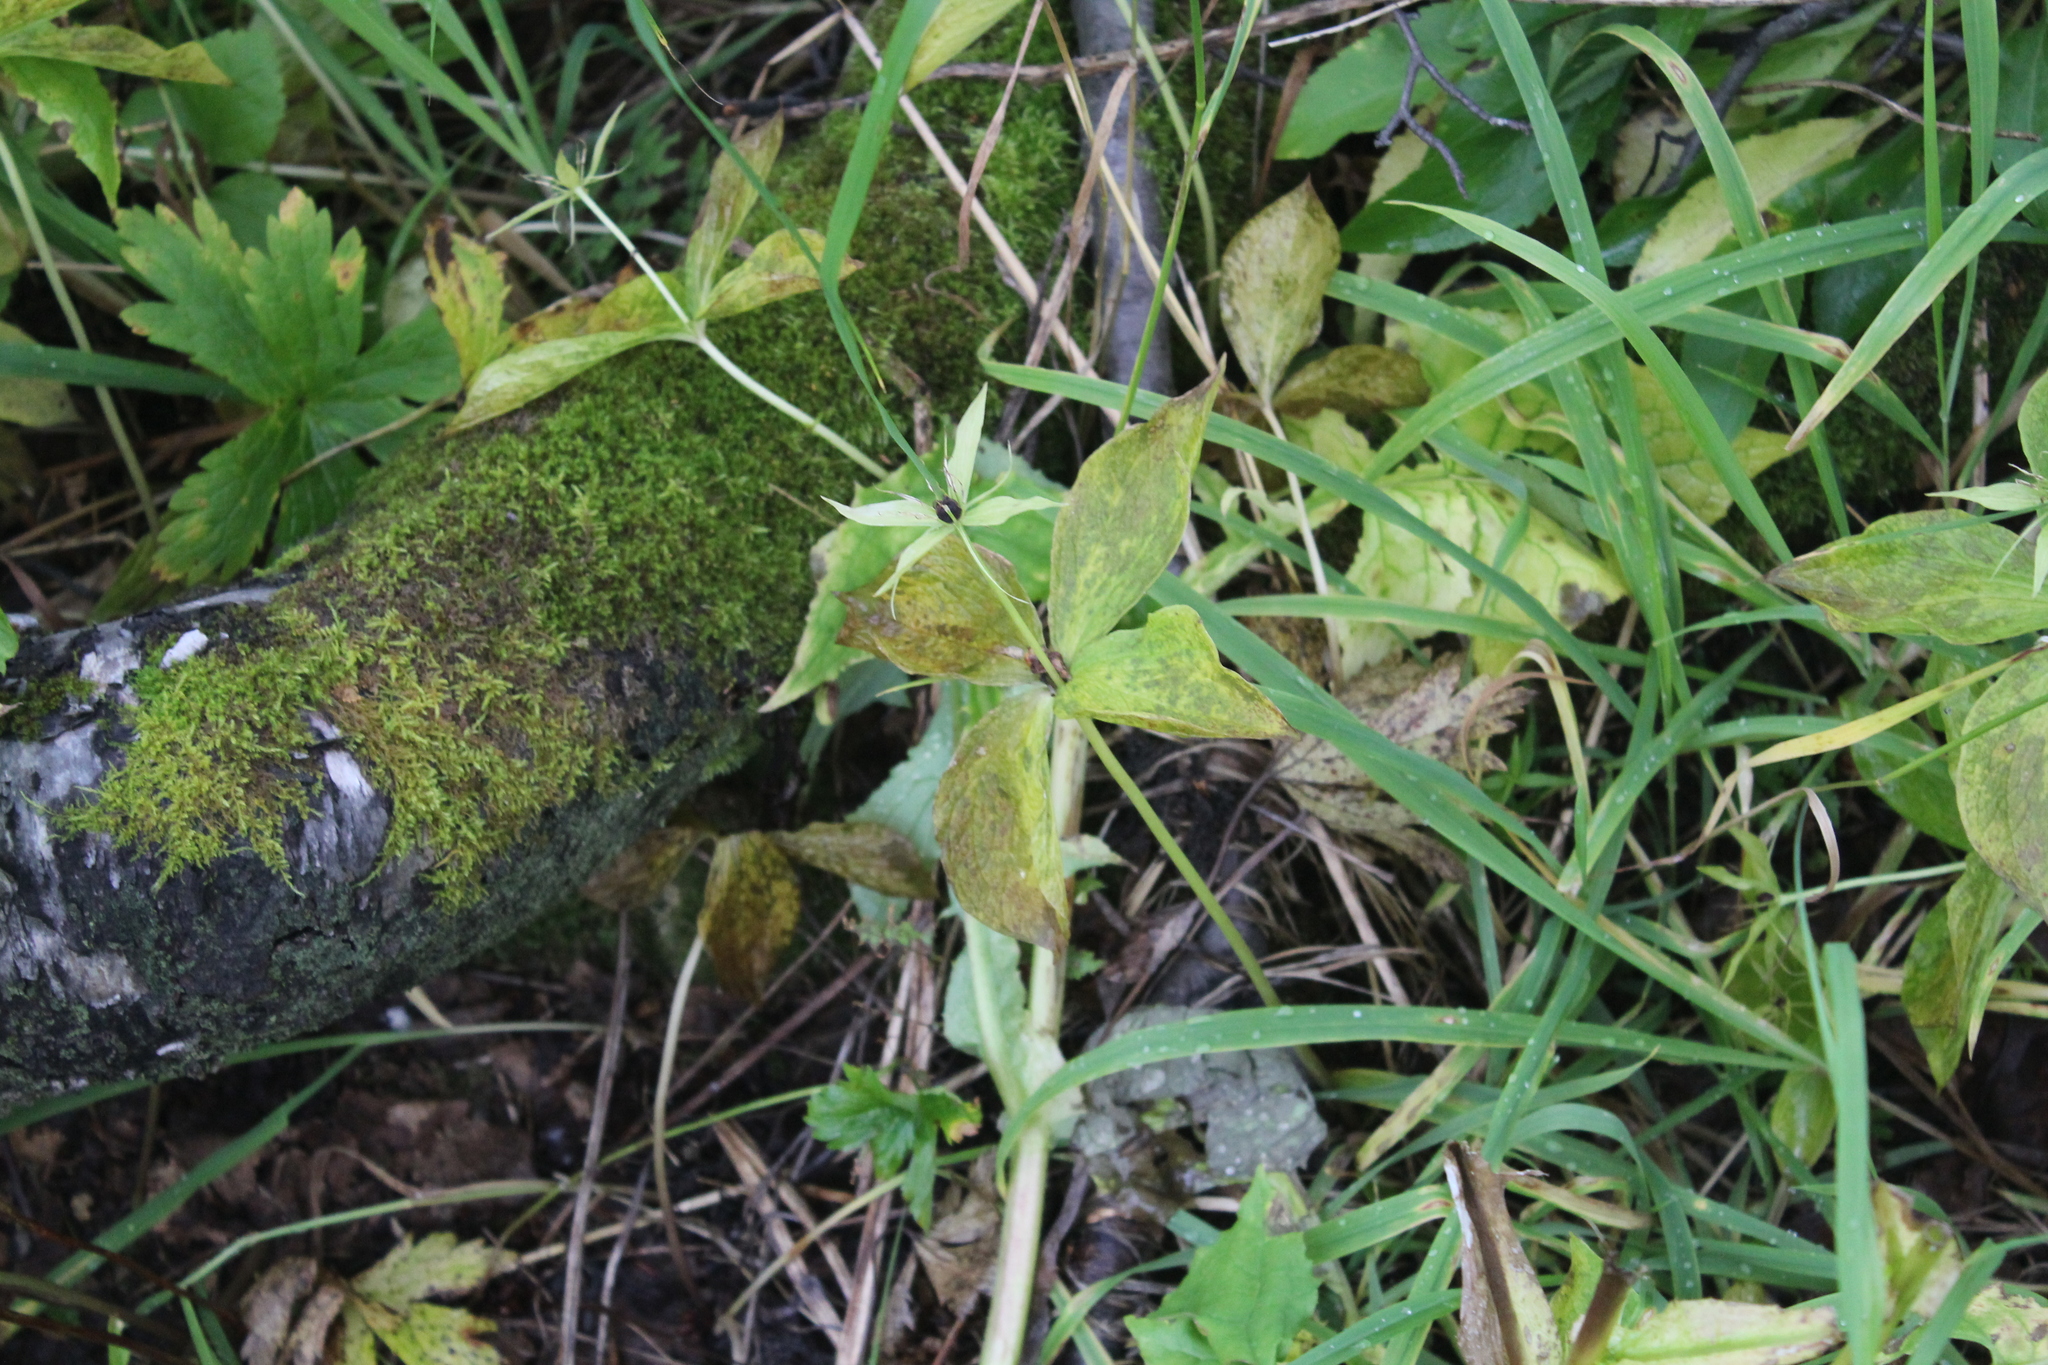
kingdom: Plantae
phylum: Tracheophyta
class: Liliopsida
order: Liliales
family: Melanthiaceae
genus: Paris
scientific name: Paris quadrifolia
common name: Herb-paris
